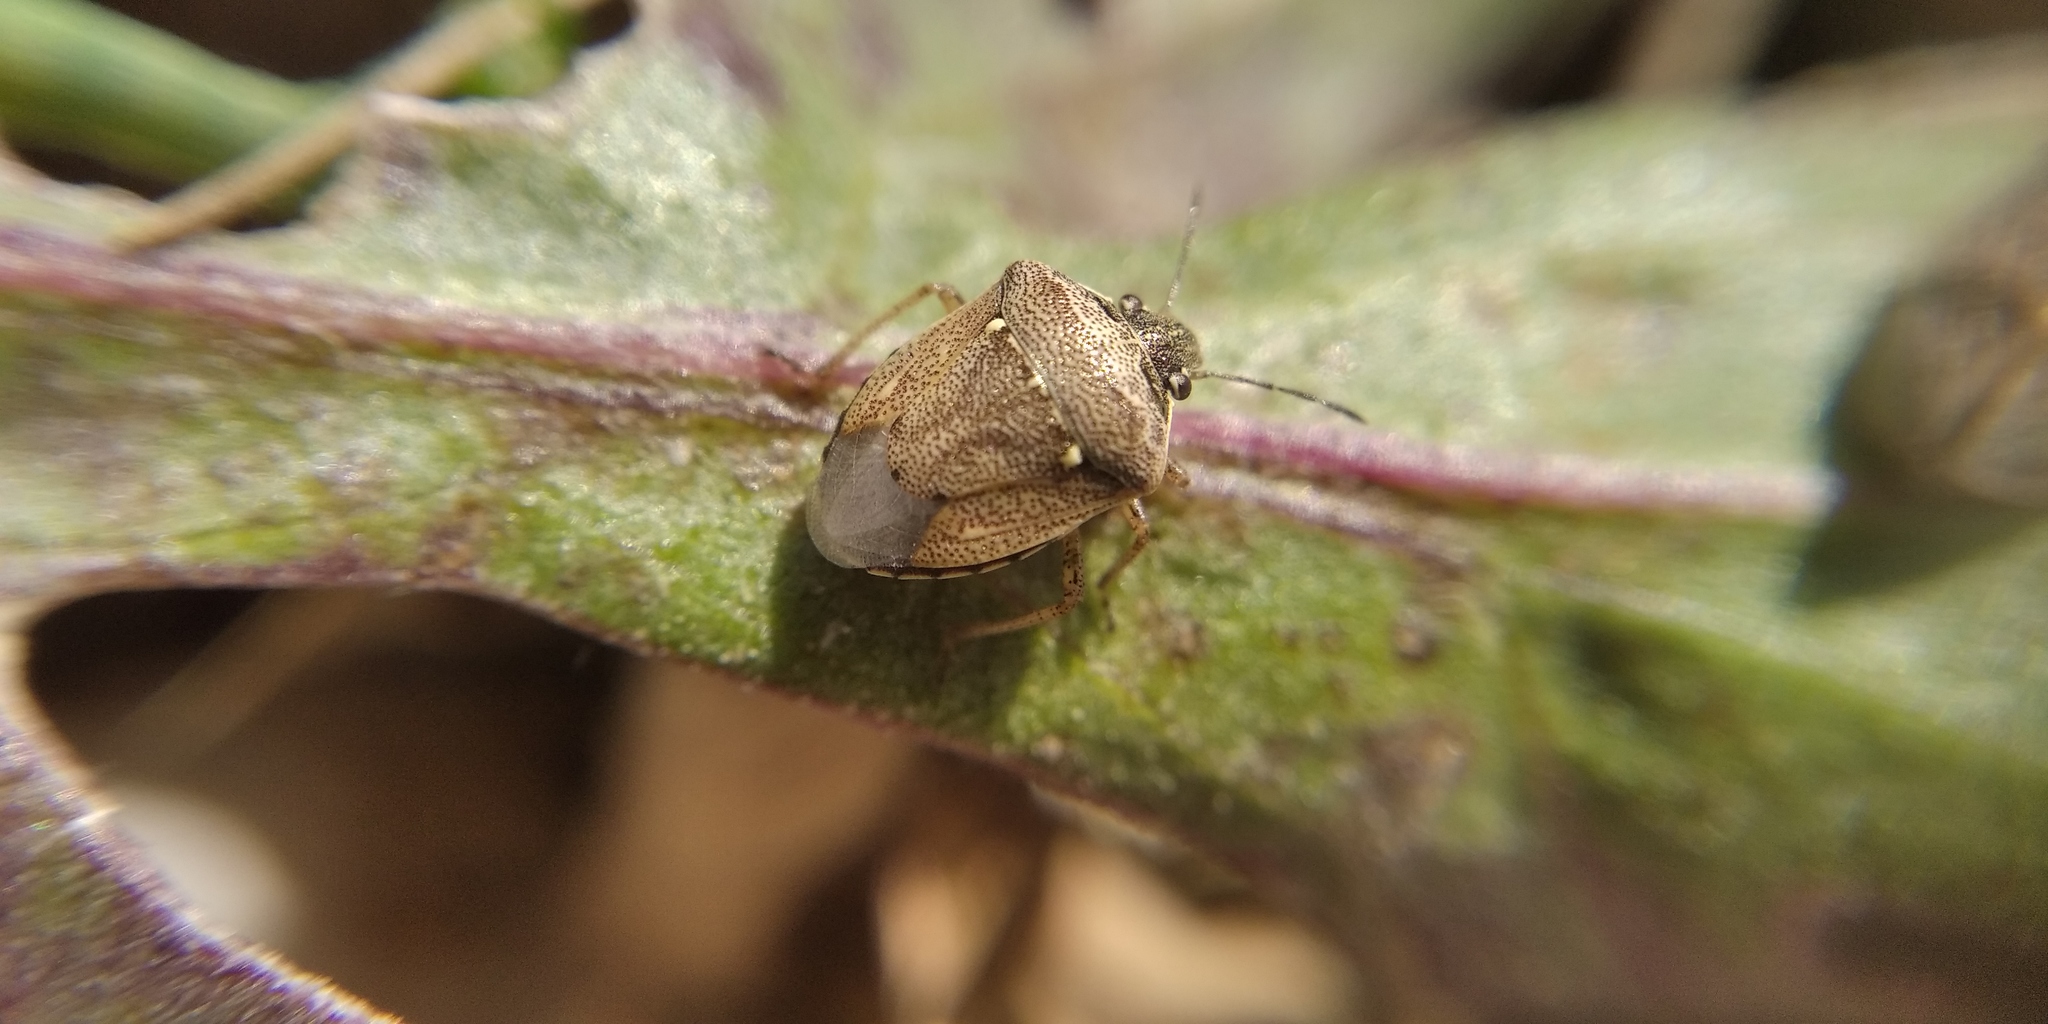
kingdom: Animalia
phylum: Arthropoda
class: Insecta
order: Hemiptera
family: Pentatomidae
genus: Eysarcoris
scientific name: Eysarcoris ventralis
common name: White-spotted stink bug
